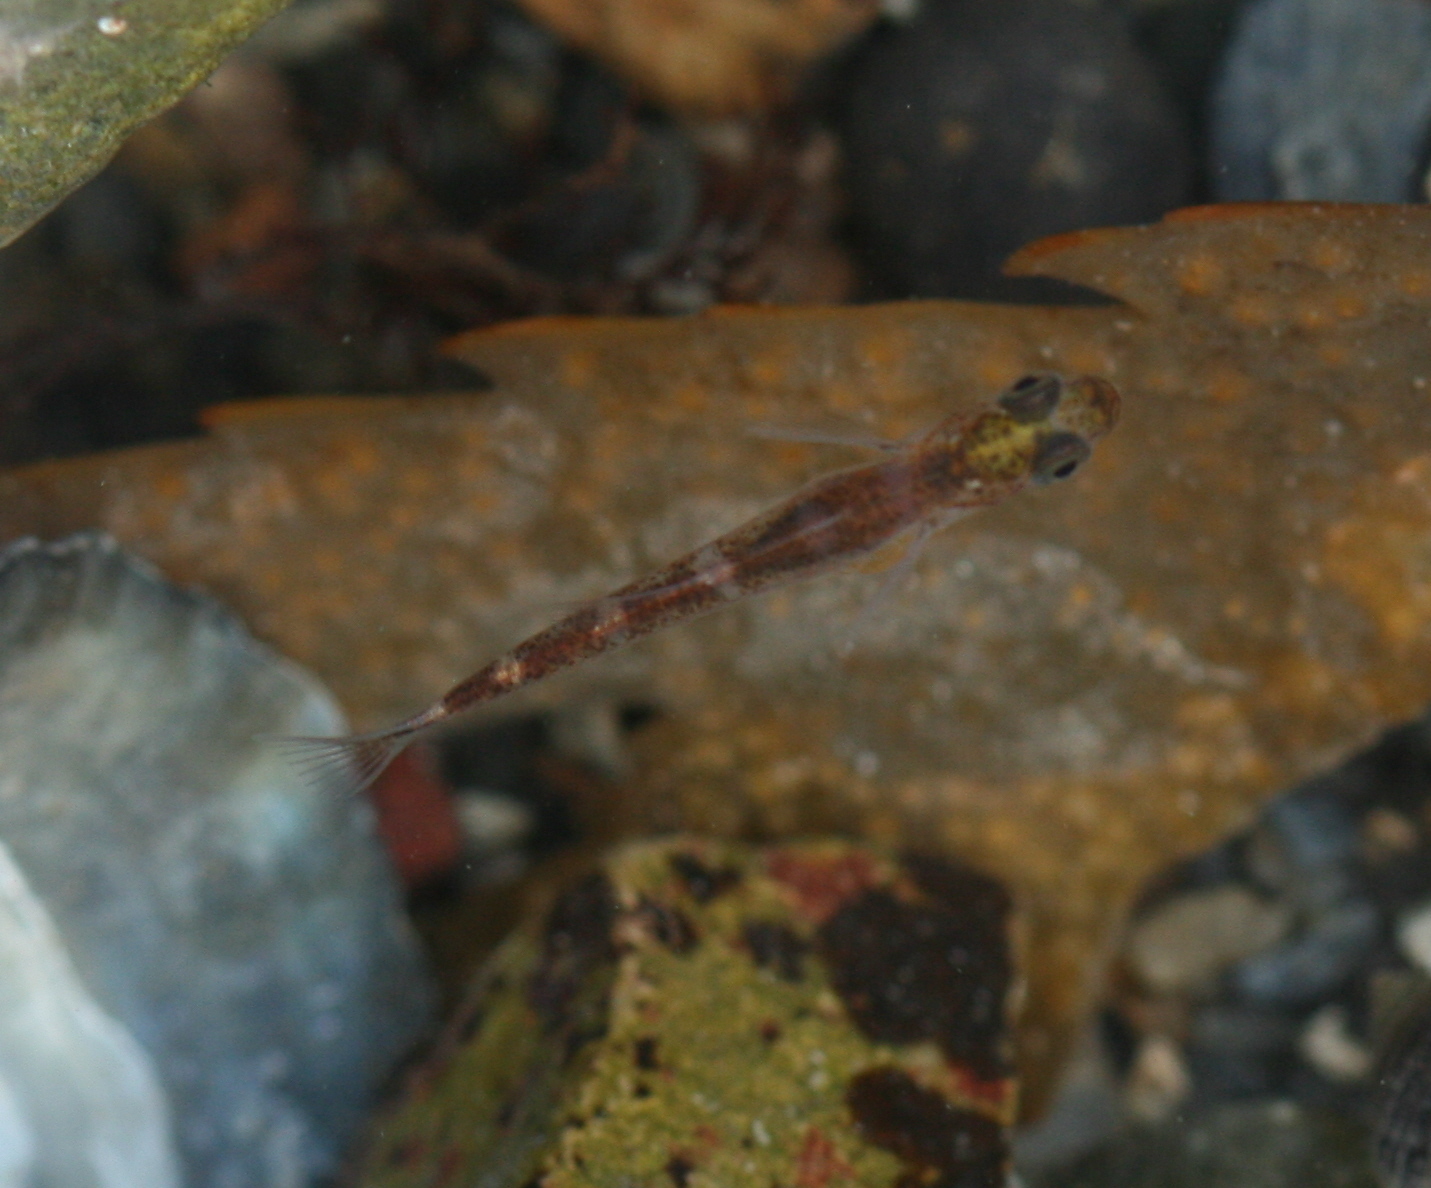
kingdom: Animalia
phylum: Chordata
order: Perciformes
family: Gobiidae
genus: Gobiusculus
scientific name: Gobiusculus flavescens
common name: Two-spotted goby
